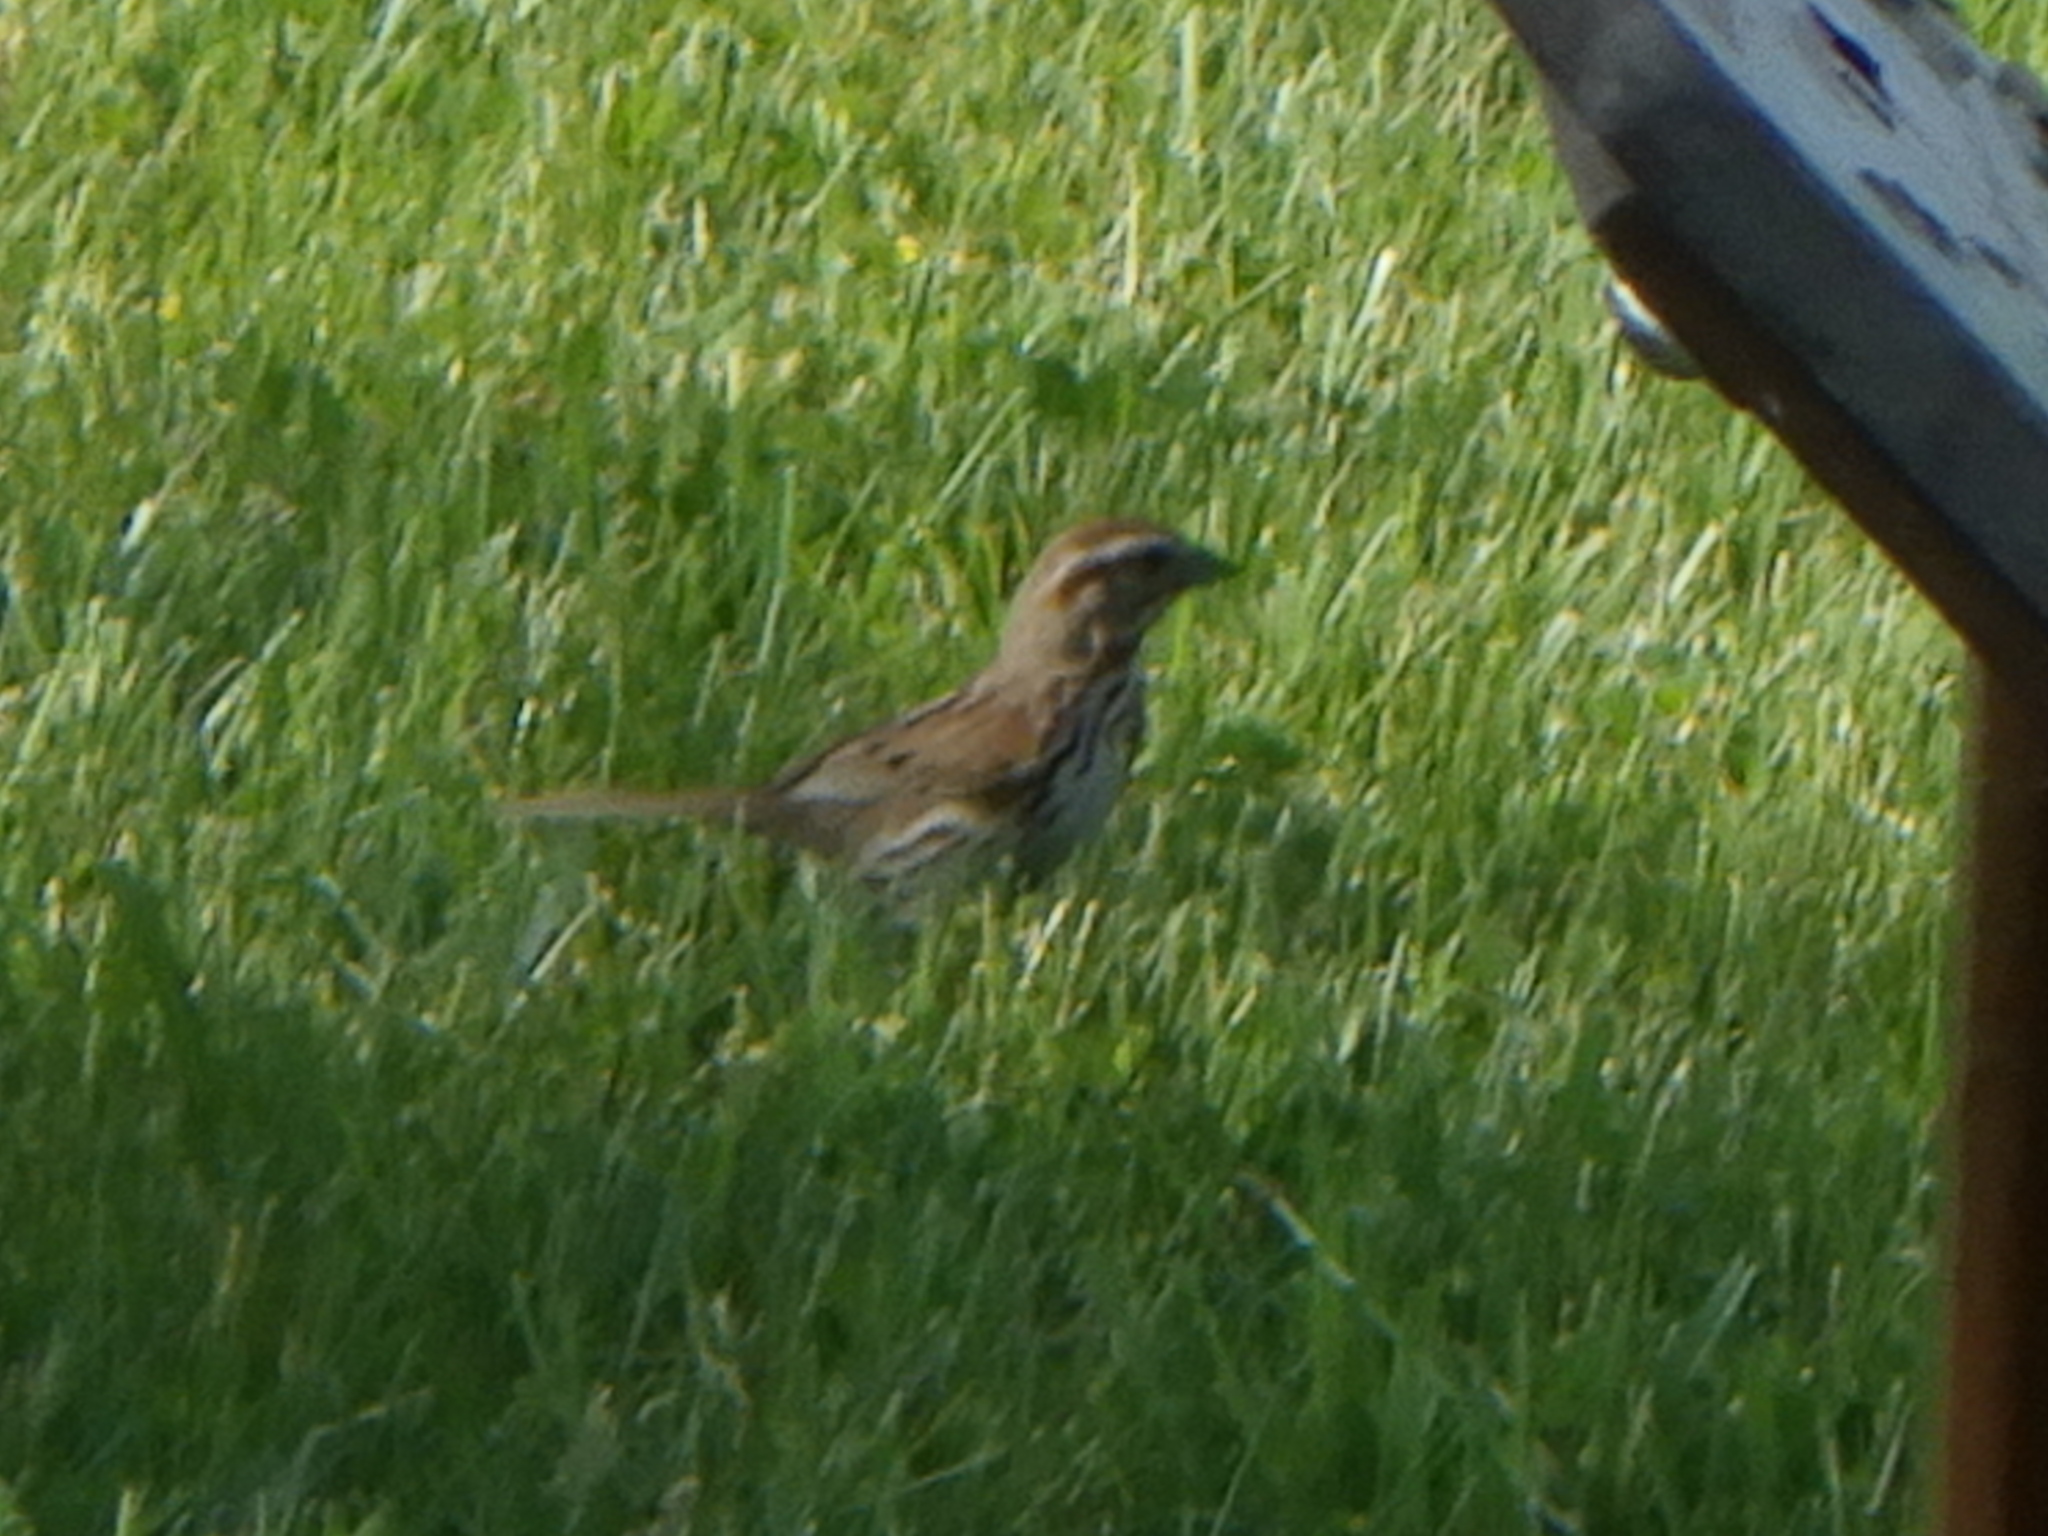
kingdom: Animalia
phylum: Chordata
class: Aves
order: Passeriformes
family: Passerellidae
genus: Melospiza
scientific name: Melospiza melodia
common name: Song sparrow
